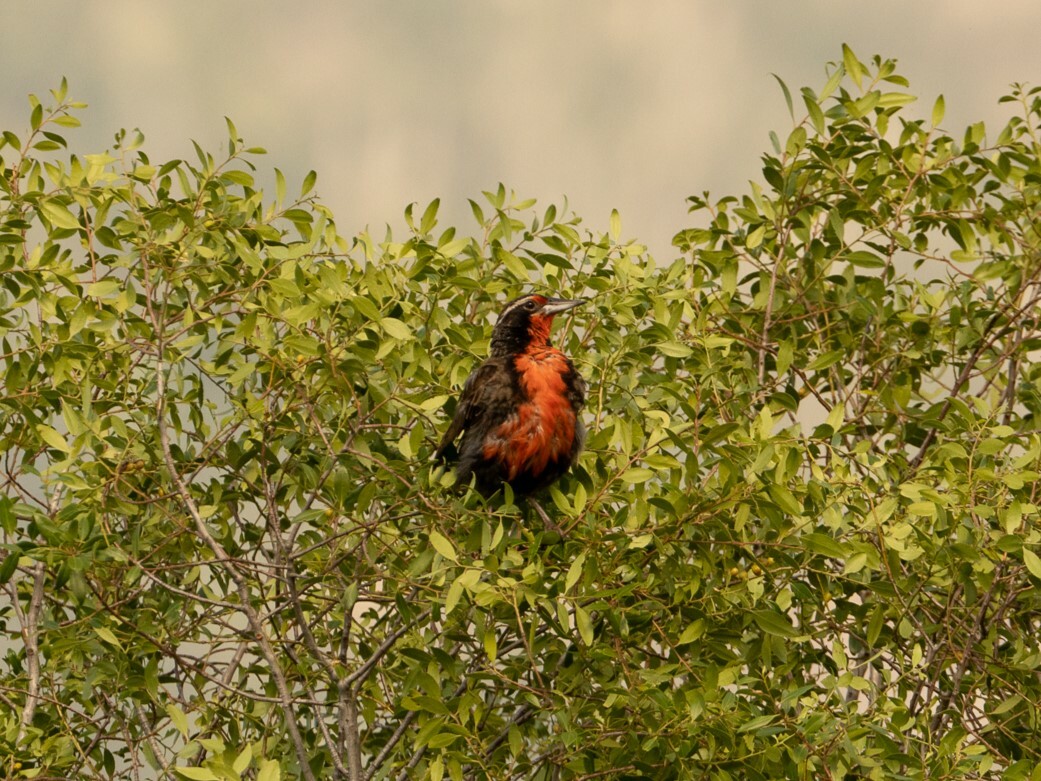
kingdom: Animalia
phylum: Chordata
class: Aves
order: Passeriformes
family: Icteridae
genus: Sturnella
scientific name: Sturnella loyca
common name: Long-tailed meadowlark
